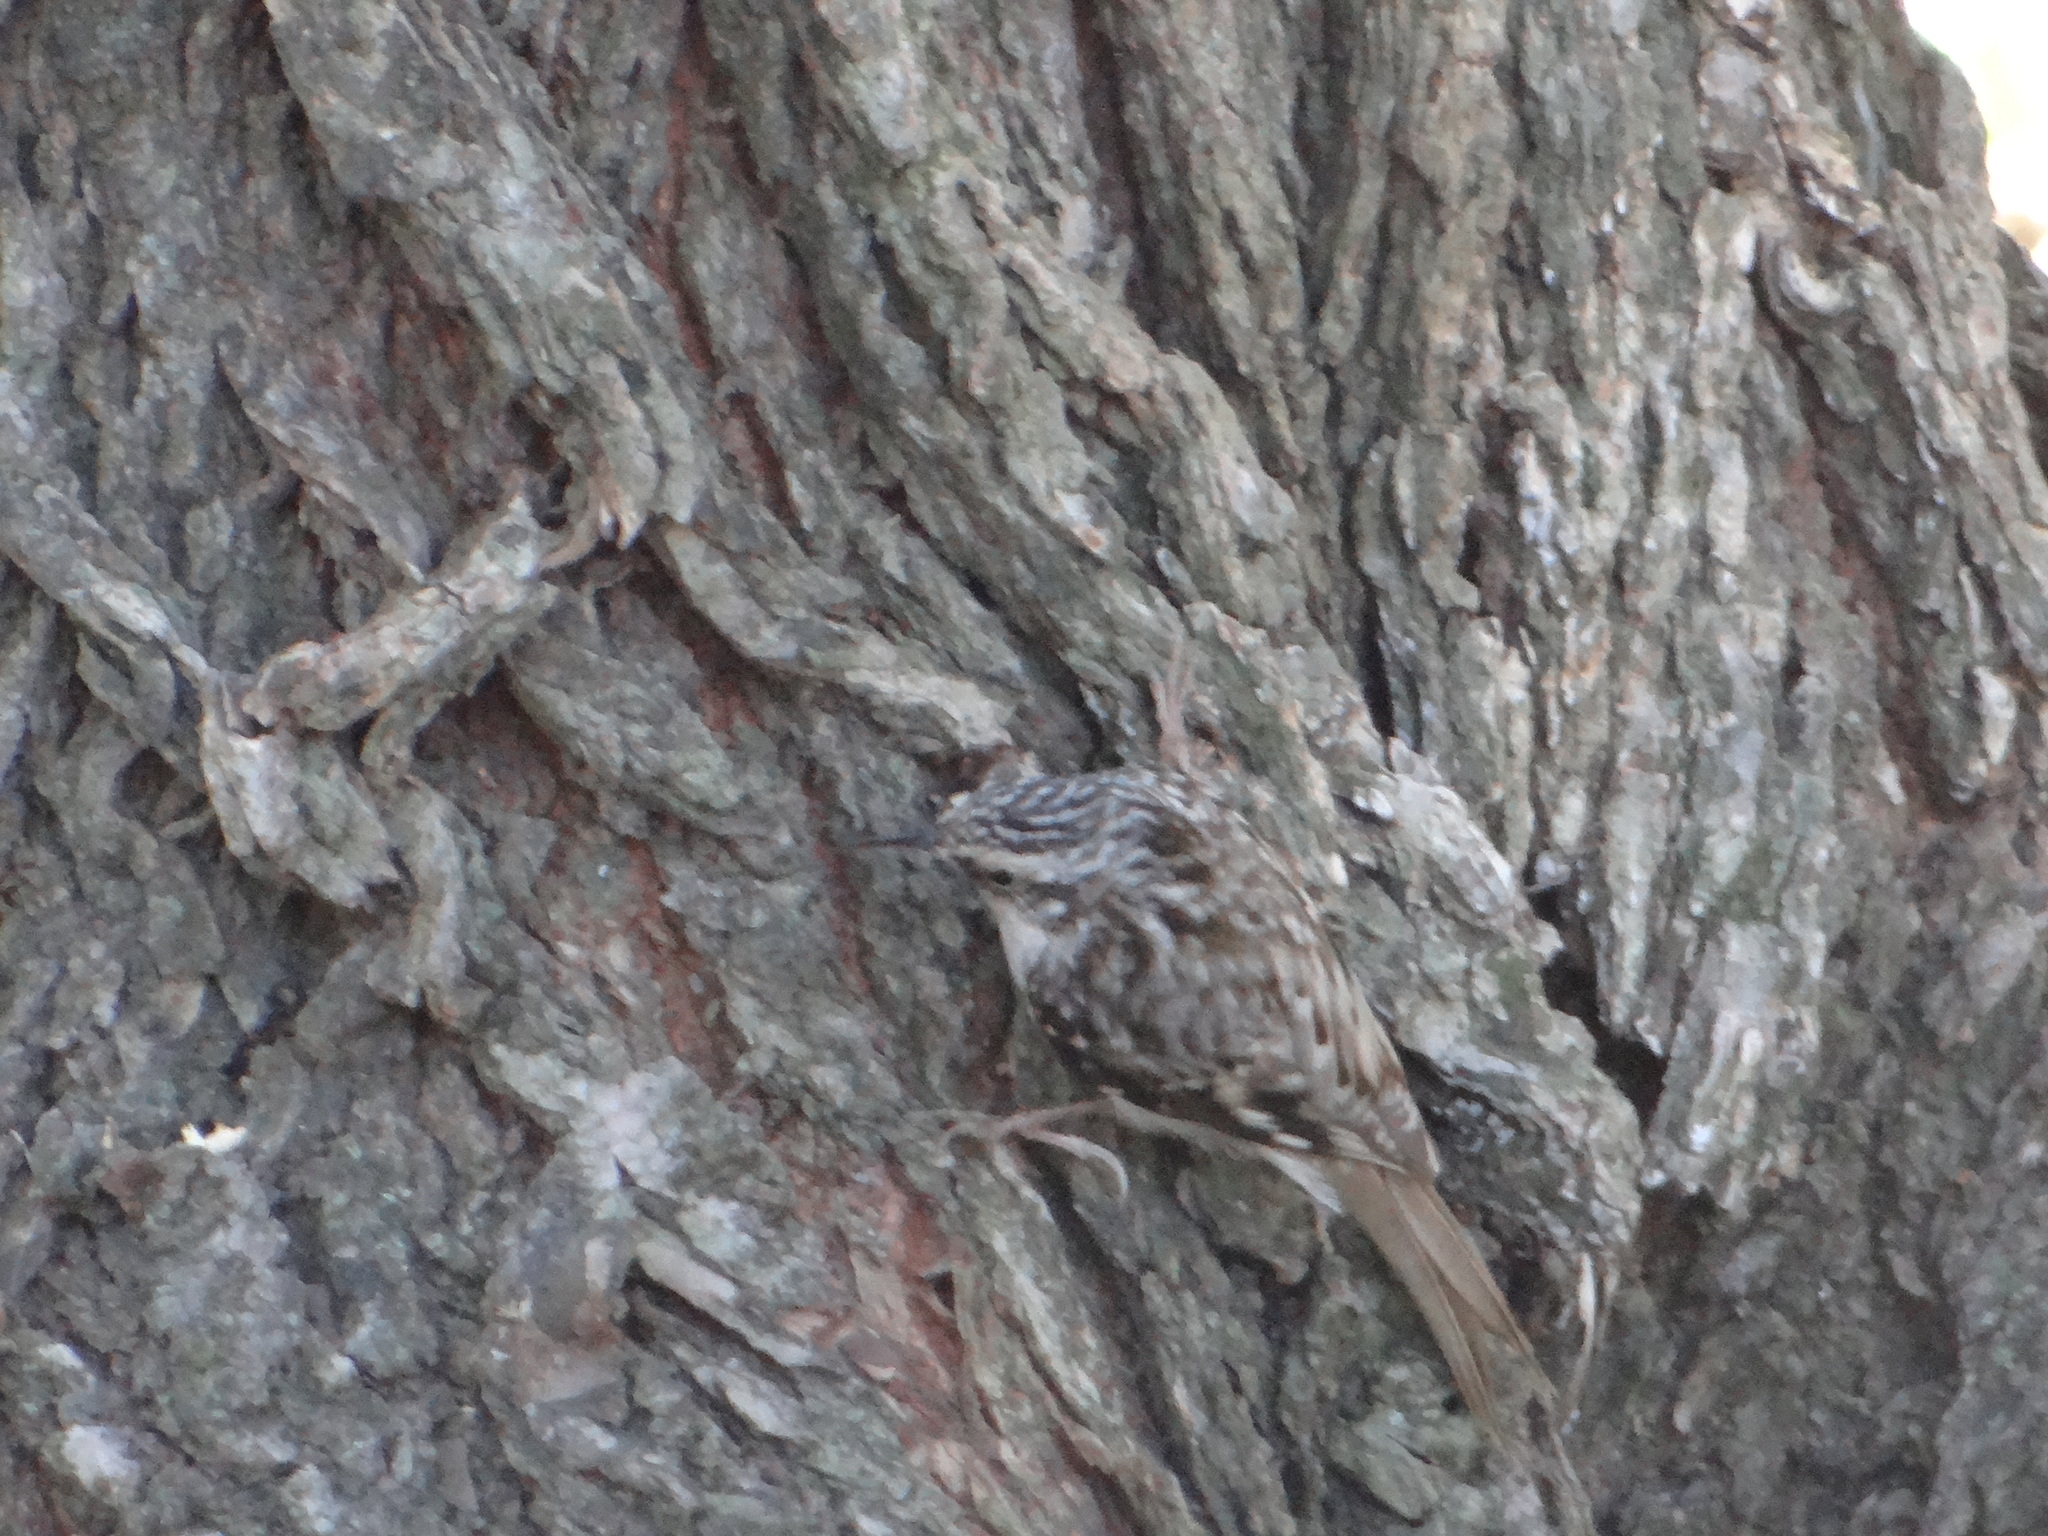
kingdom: Animalia
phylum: Chordata
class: Aves
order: Passeriformes
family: Certhiidae
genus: Certhia
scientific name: Certhia americana
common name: Brown creeper
